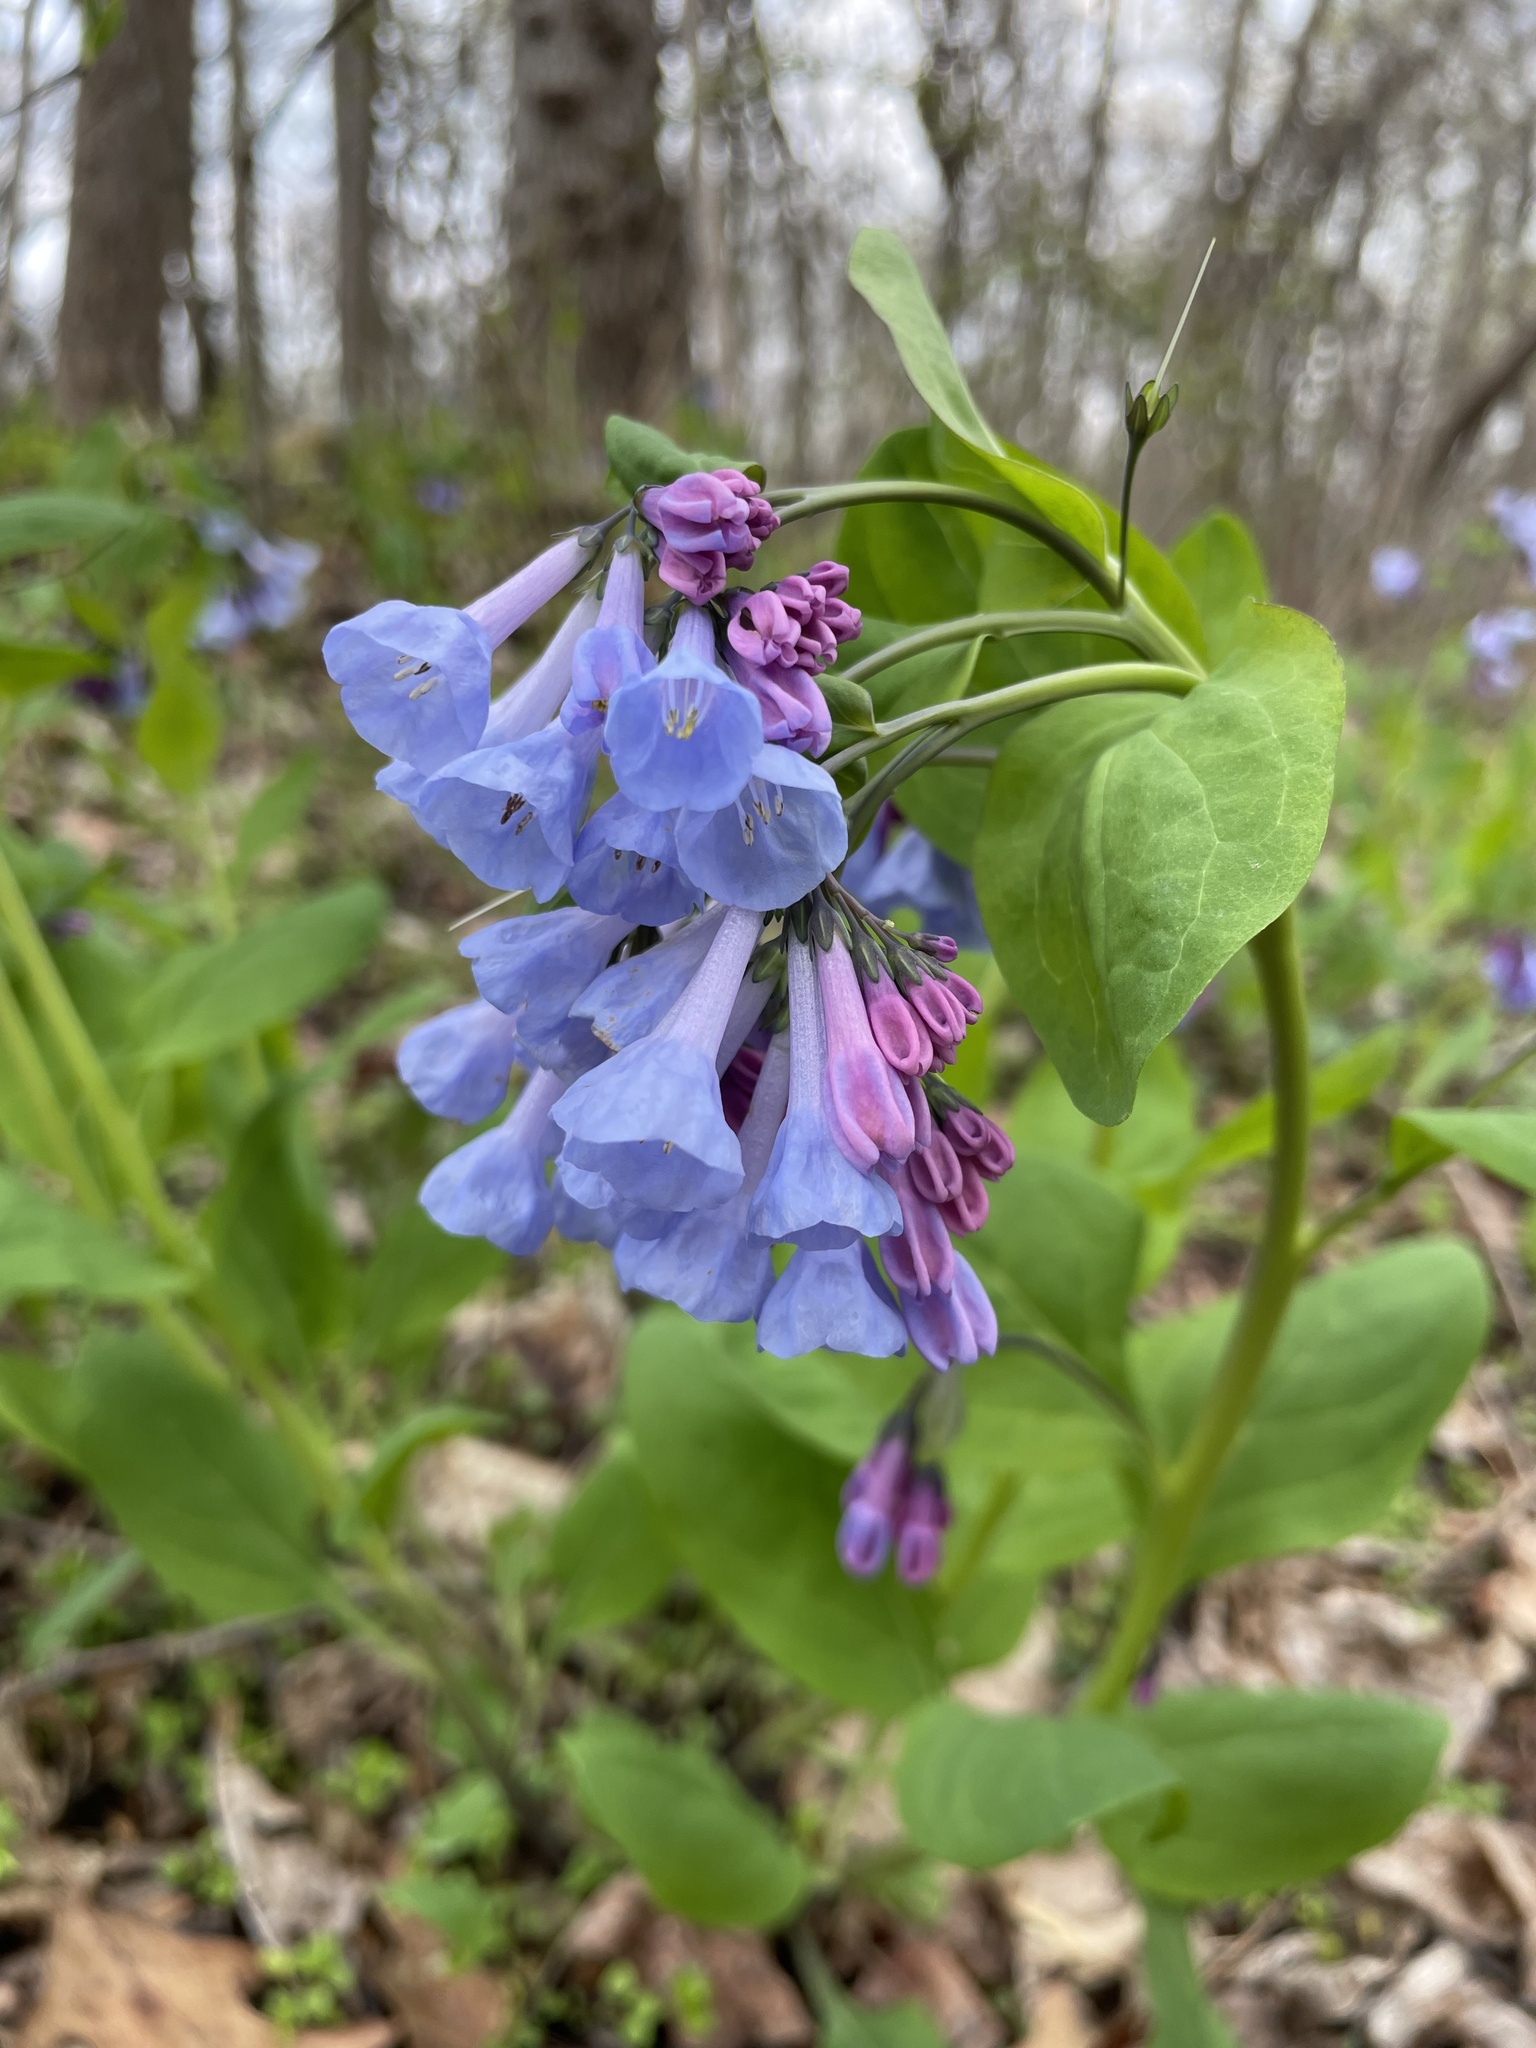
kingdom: Plantae
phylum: Tracheophyta
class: Magnoliopsida
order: Boraginales
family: Boraginaceae
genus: Mertensia
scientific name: Mertensia virginica
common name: Virginia bluebells
